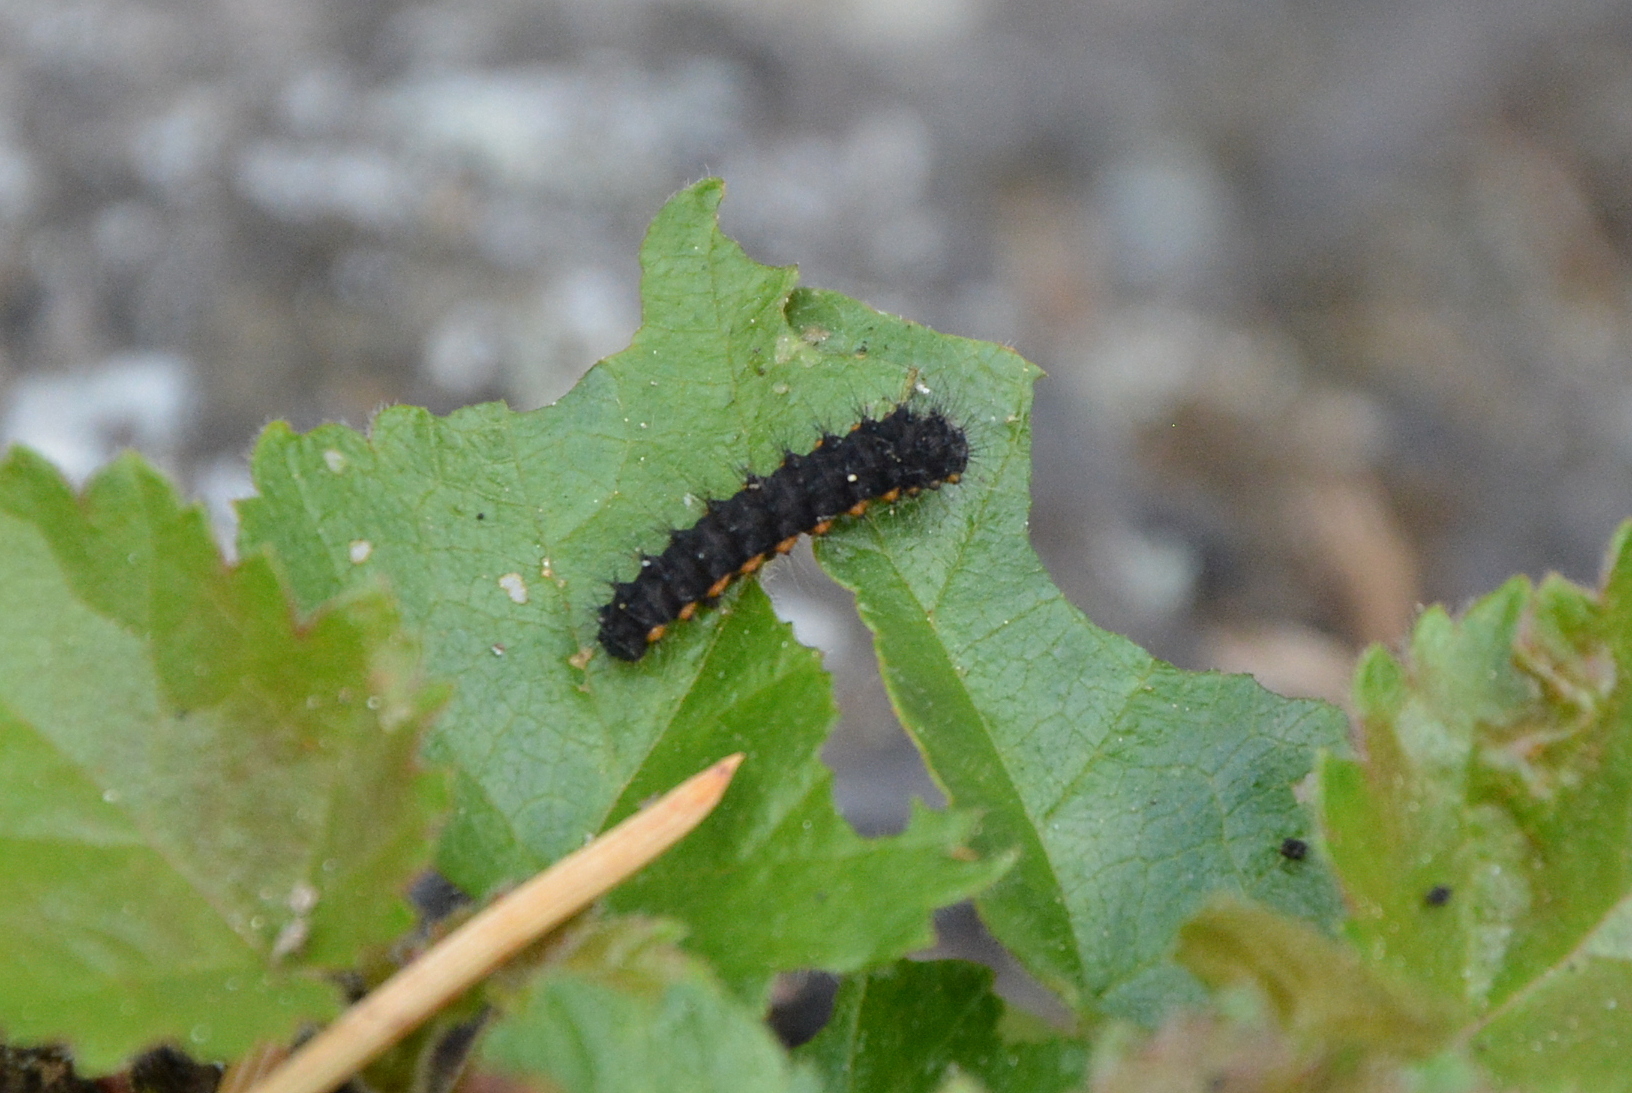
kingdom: Animalia
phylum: Arthropoda
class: Insecta
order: Lepidoptera
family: Saturniidae
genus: Saturnia
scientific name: Saturnia pavonia
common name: Emperor moth
